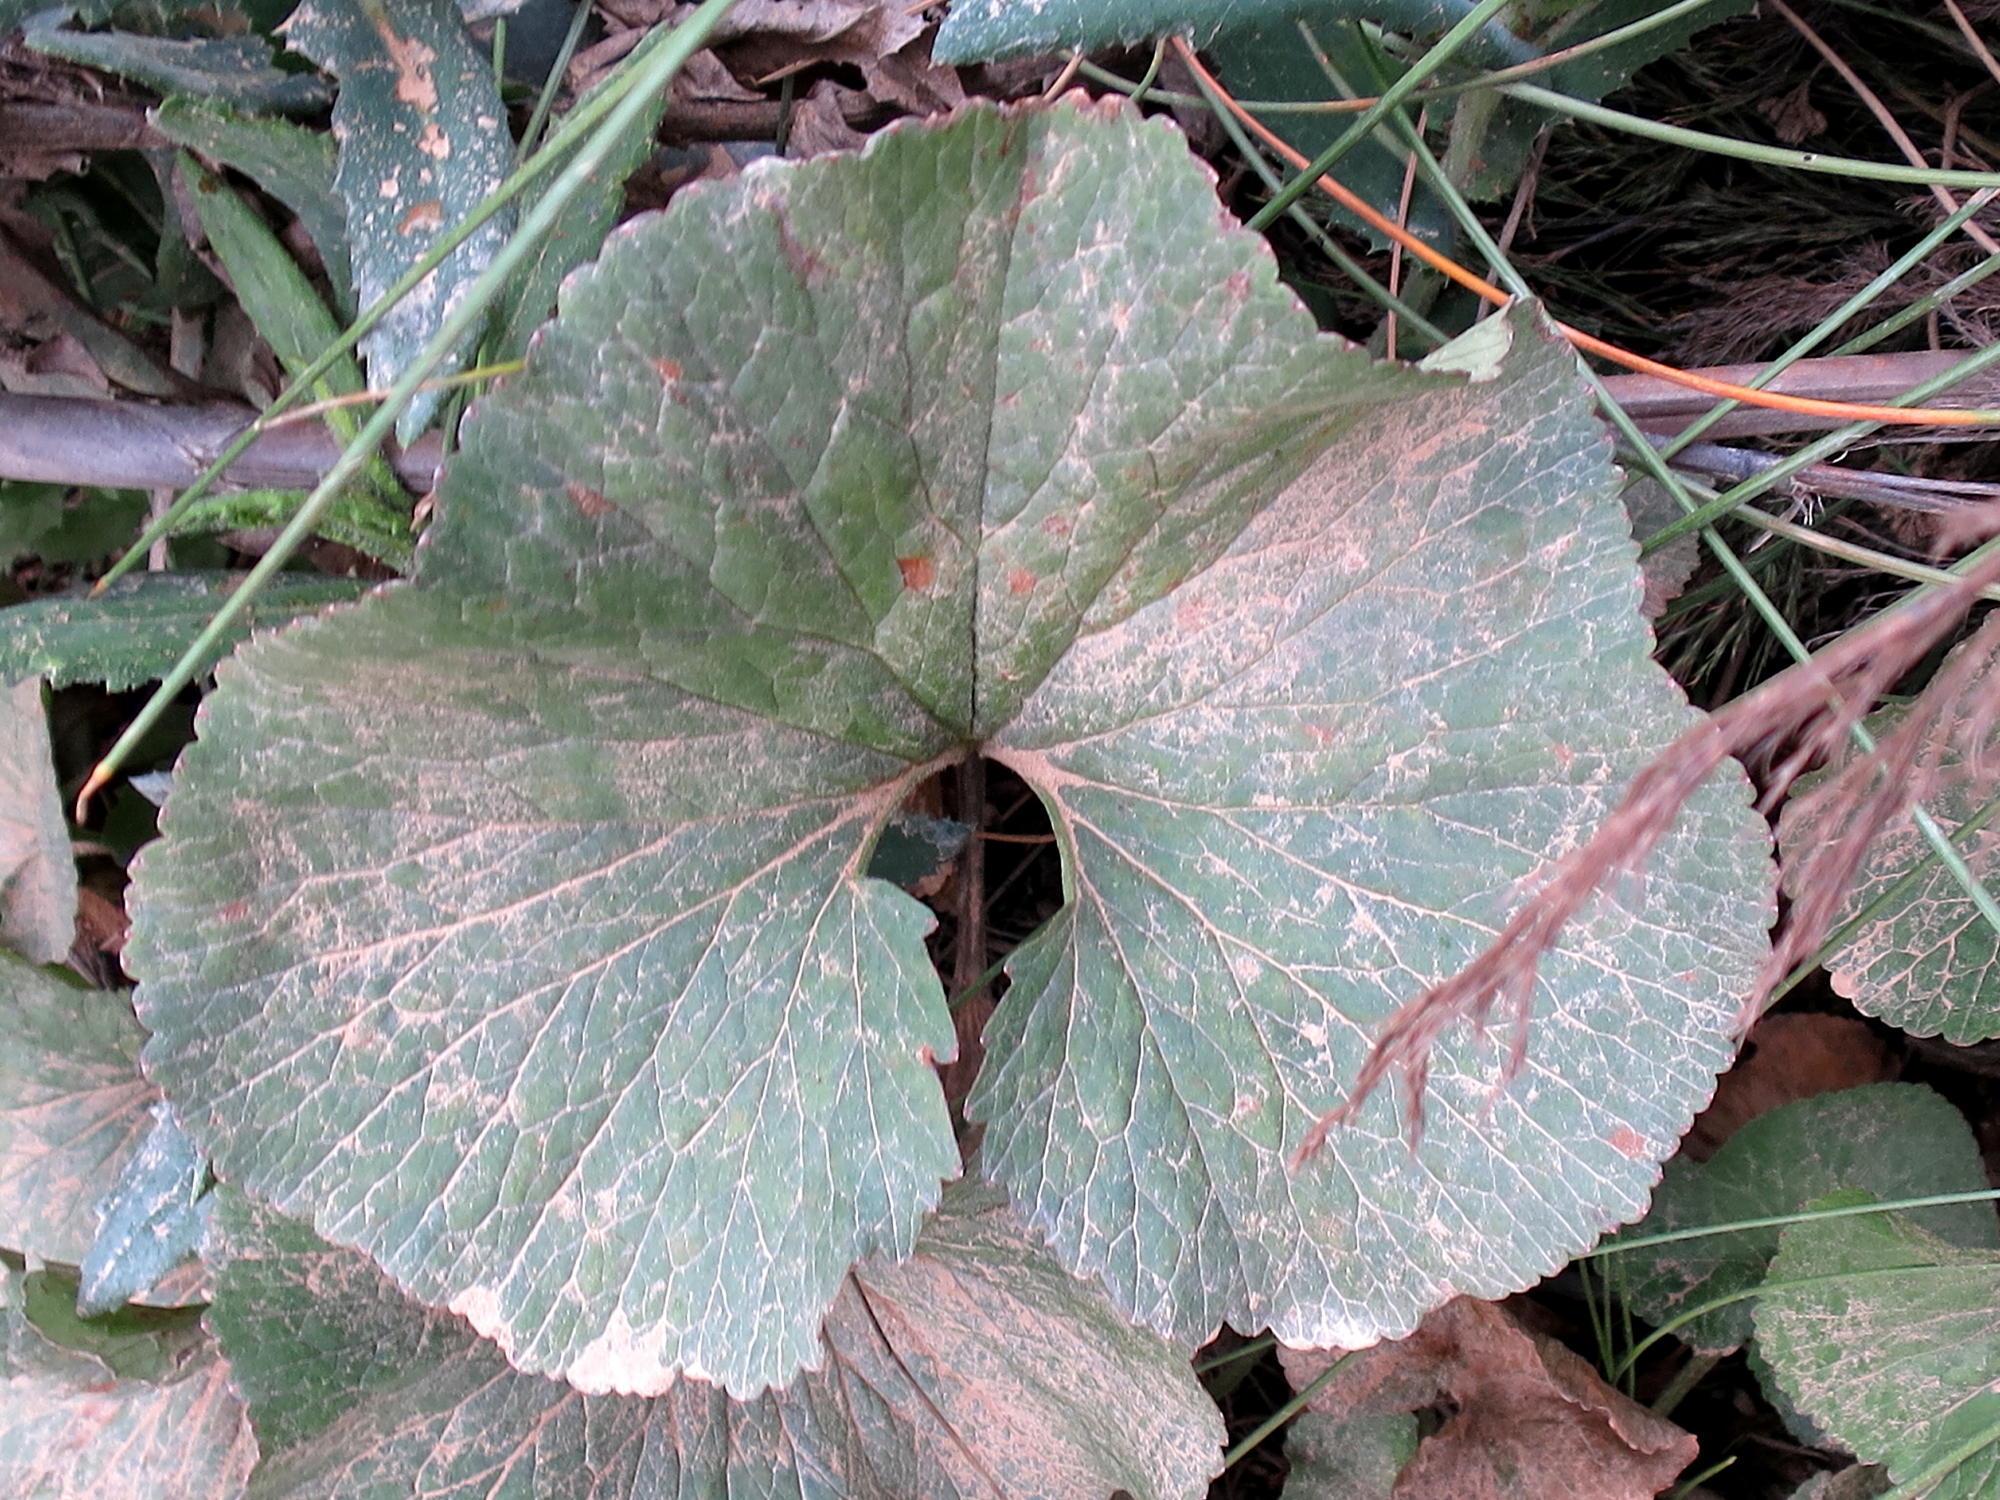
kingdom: Plantae
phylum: Tracheophyta
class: Magnoliopsida
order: Gunnerales
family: Gunneraceae
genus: Gunnera
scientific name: Gunnera perpensa
